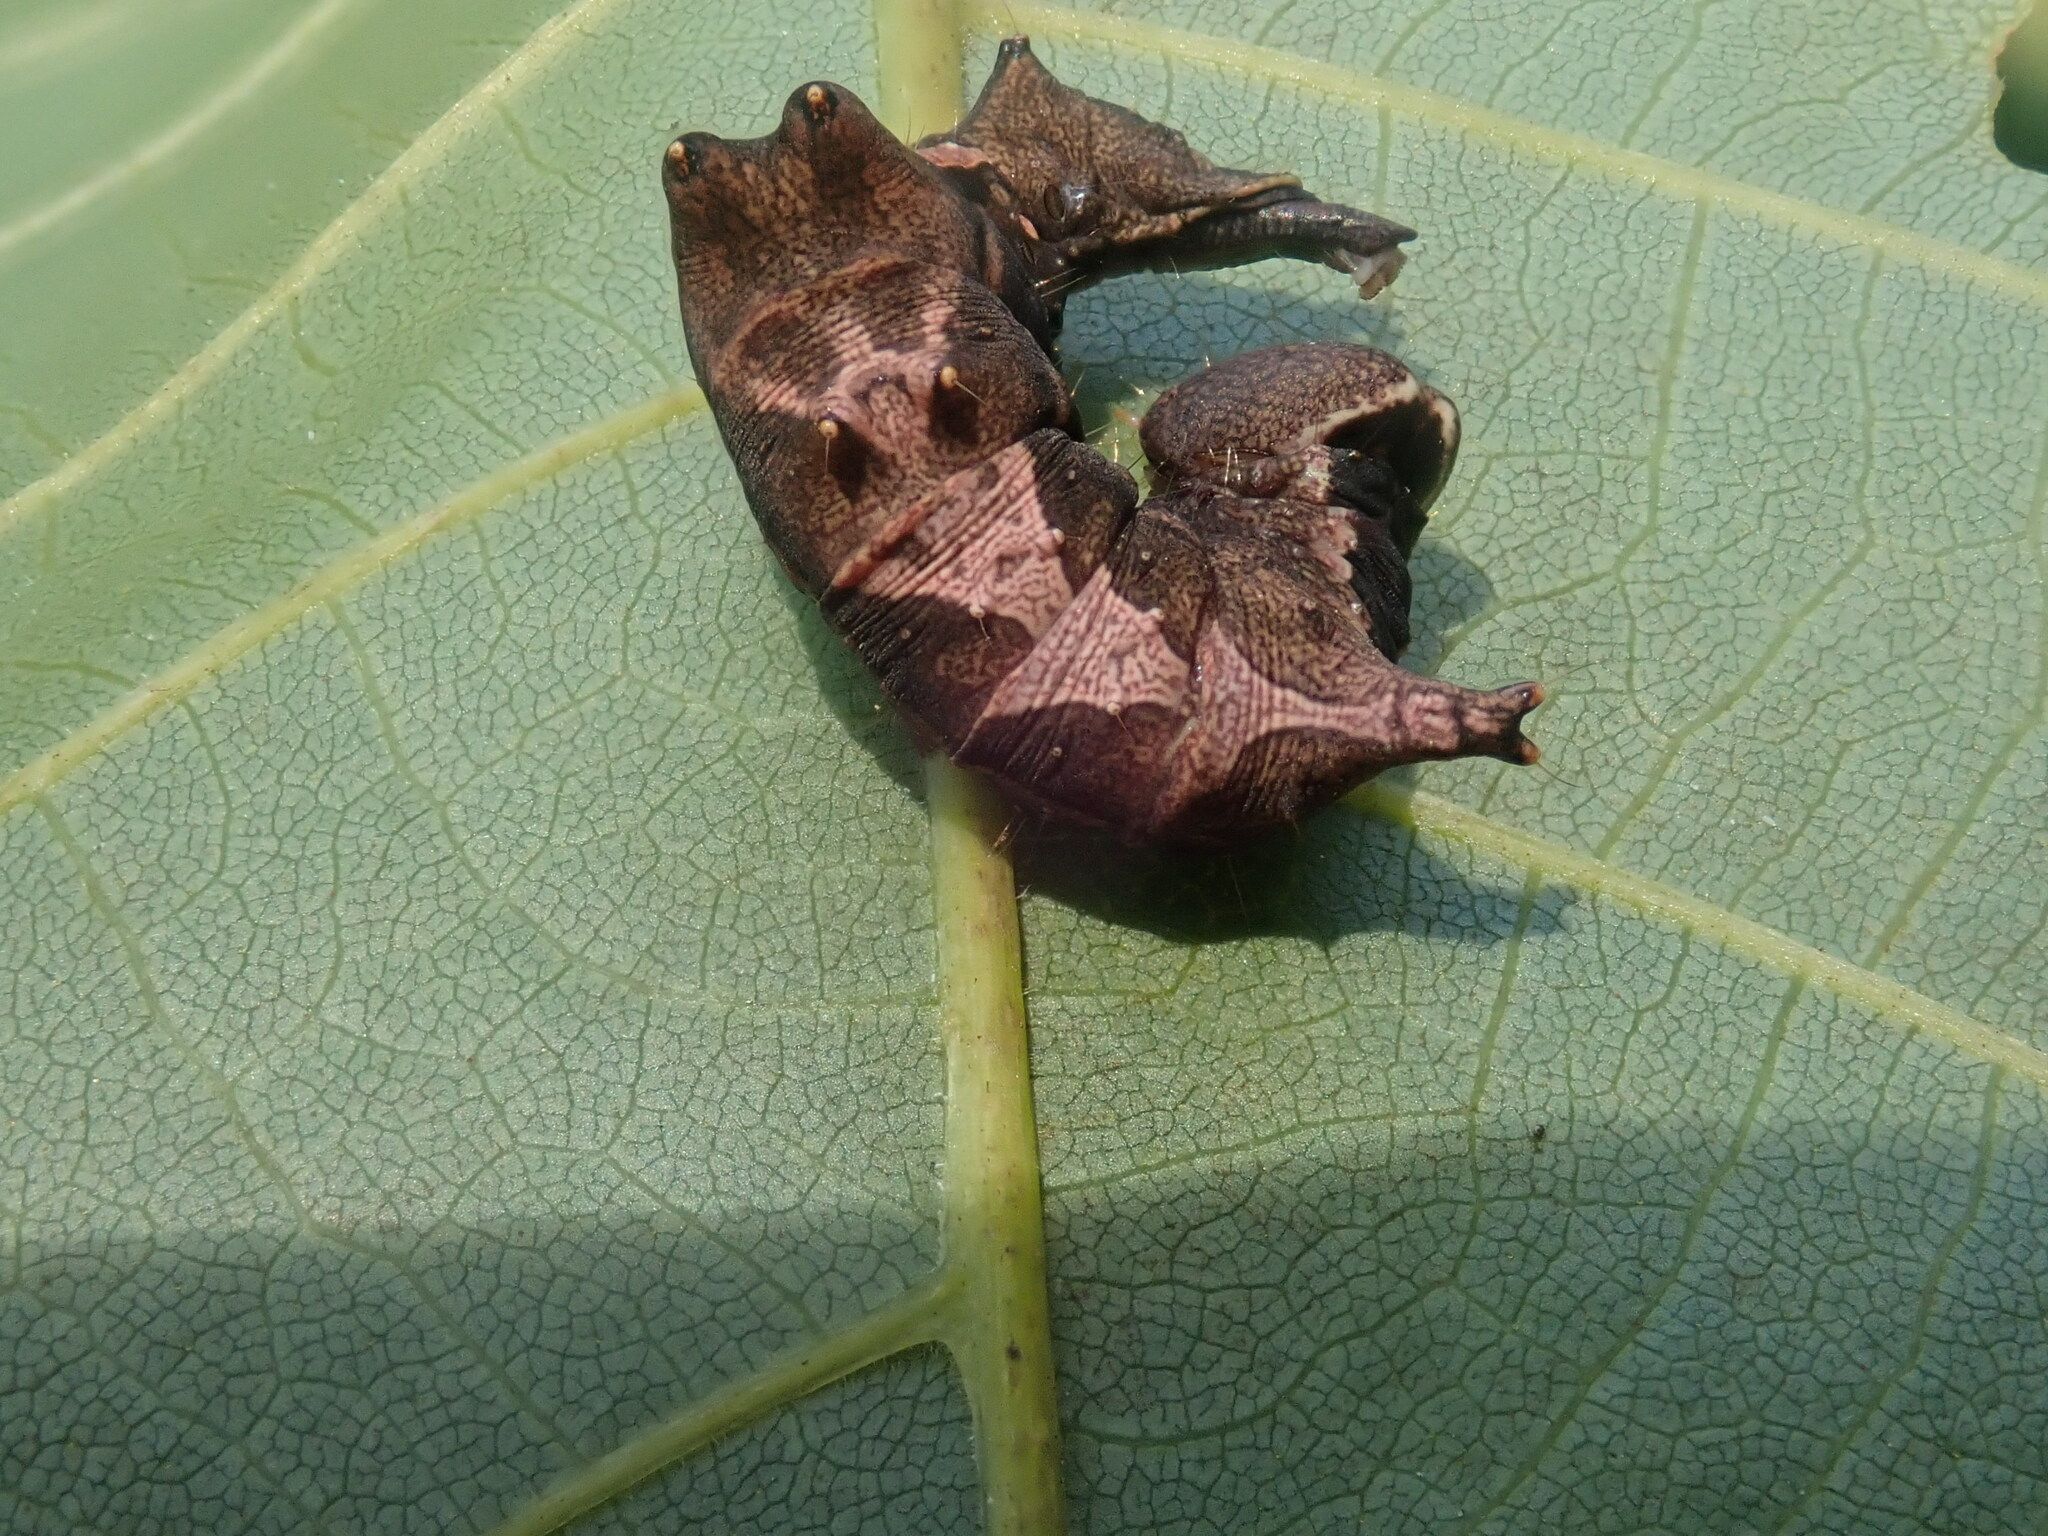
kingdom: Animalia
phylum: Arthropoda
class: Insecta
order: Lepidoptera
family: Notodontidae
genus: Schizura
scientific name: Schizura
